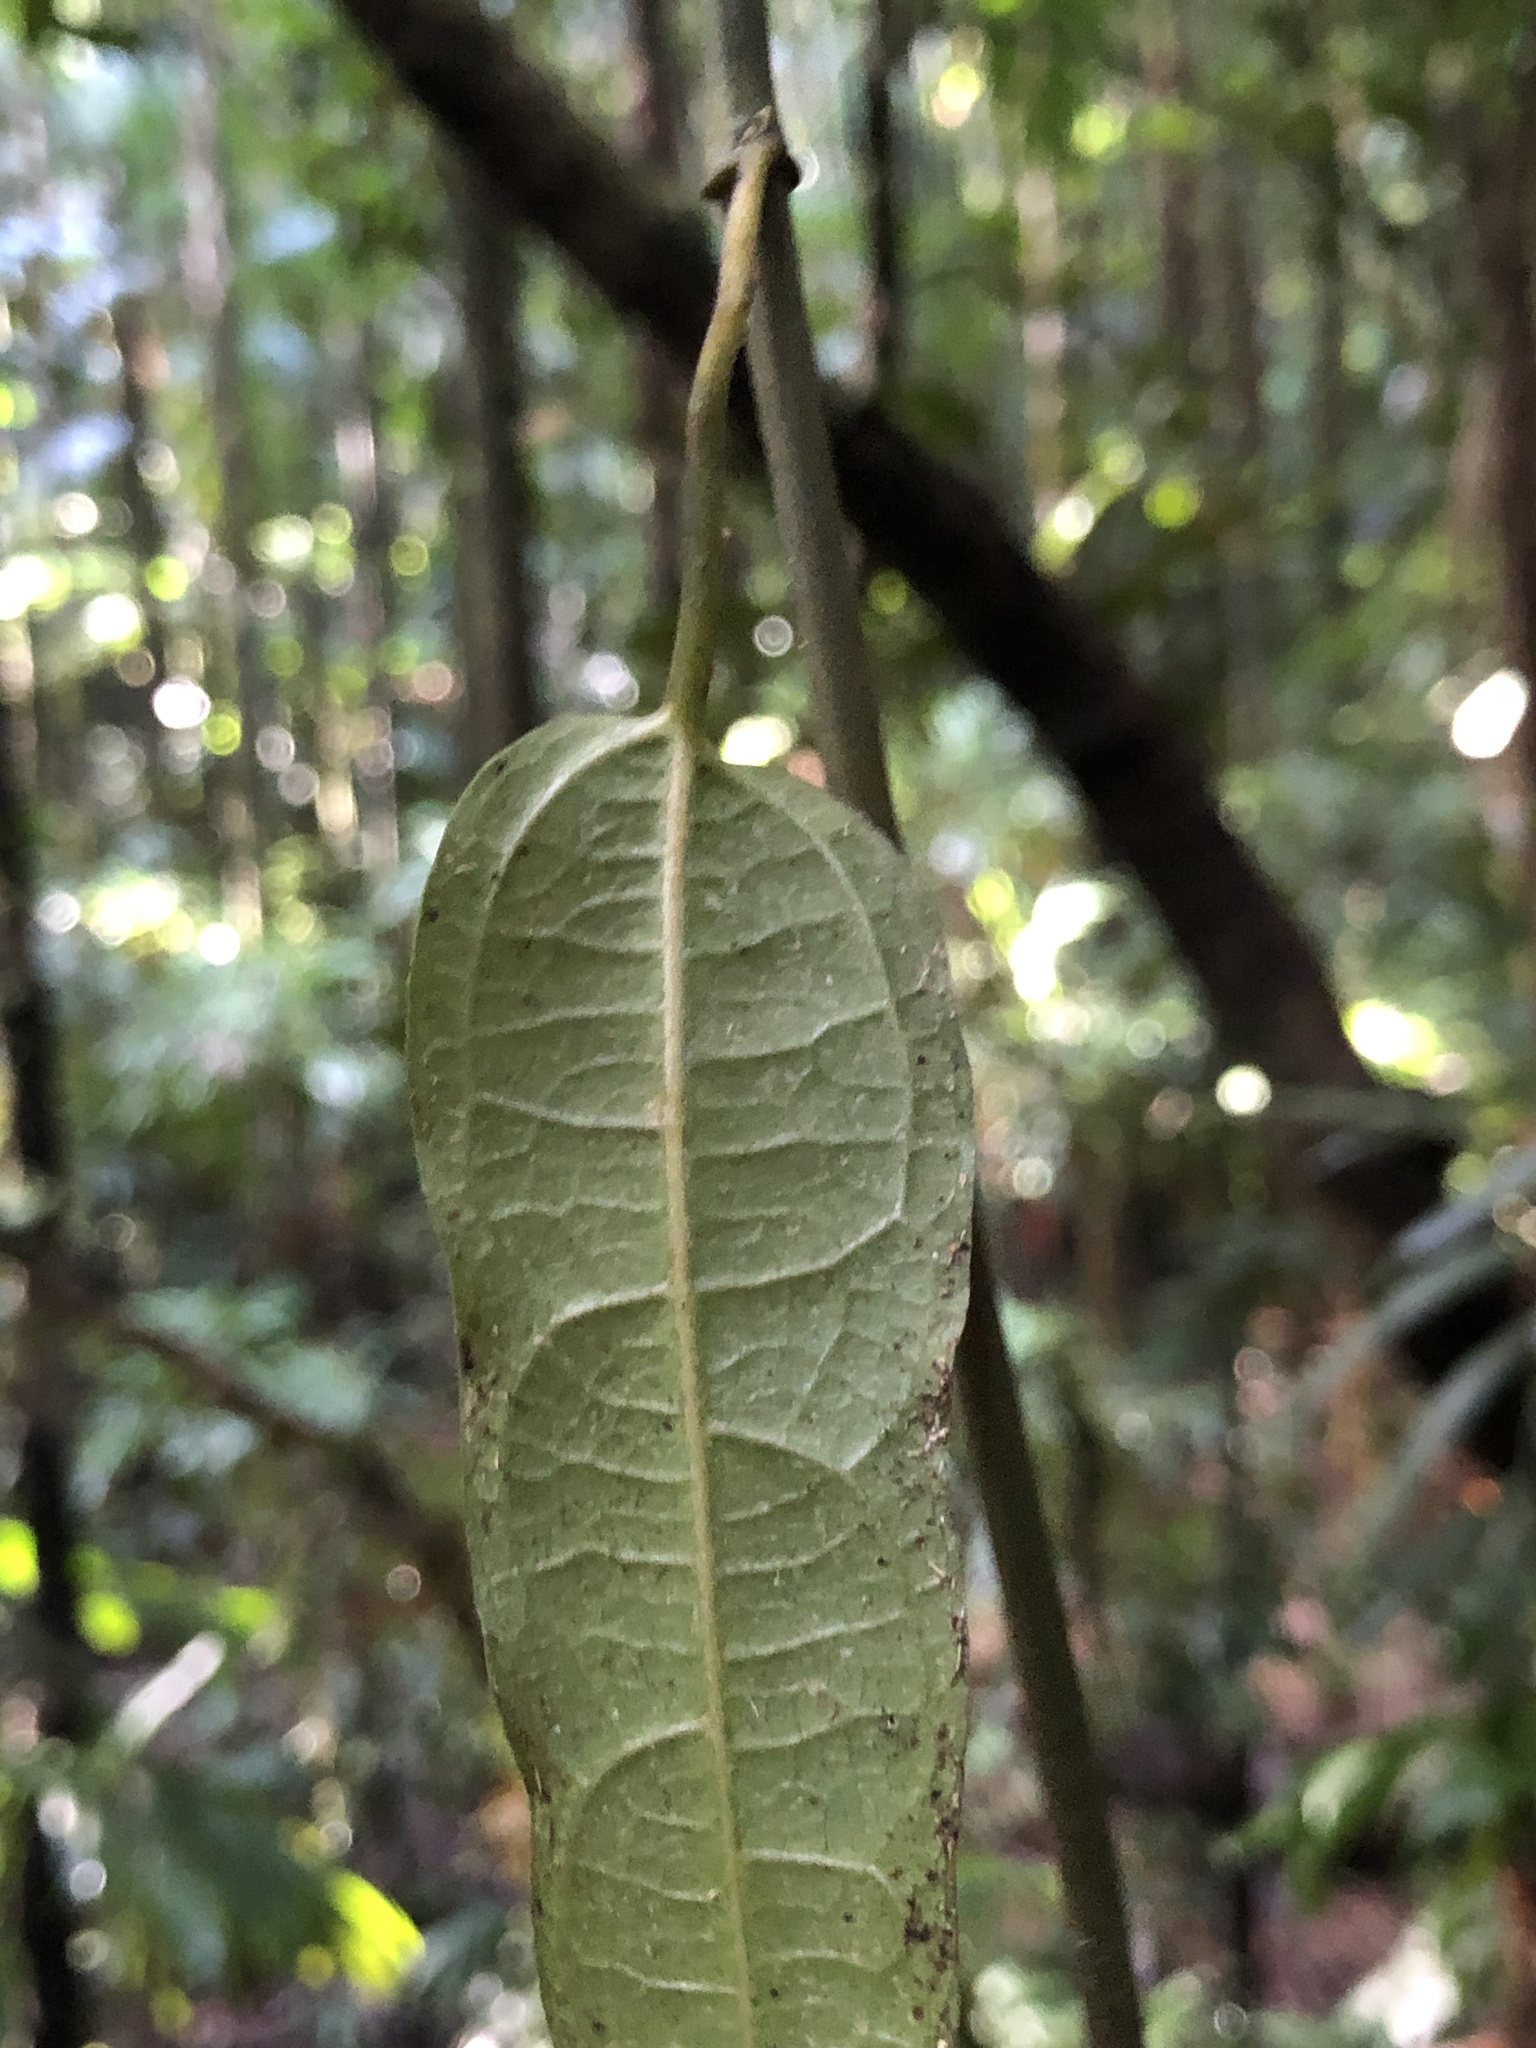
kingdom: Plantae
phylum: Tracheophyta
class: Magnoliopsida
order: Piperales
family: Aristolochiaceae
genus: Aristolochia
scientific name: Aristolochia laheyana
